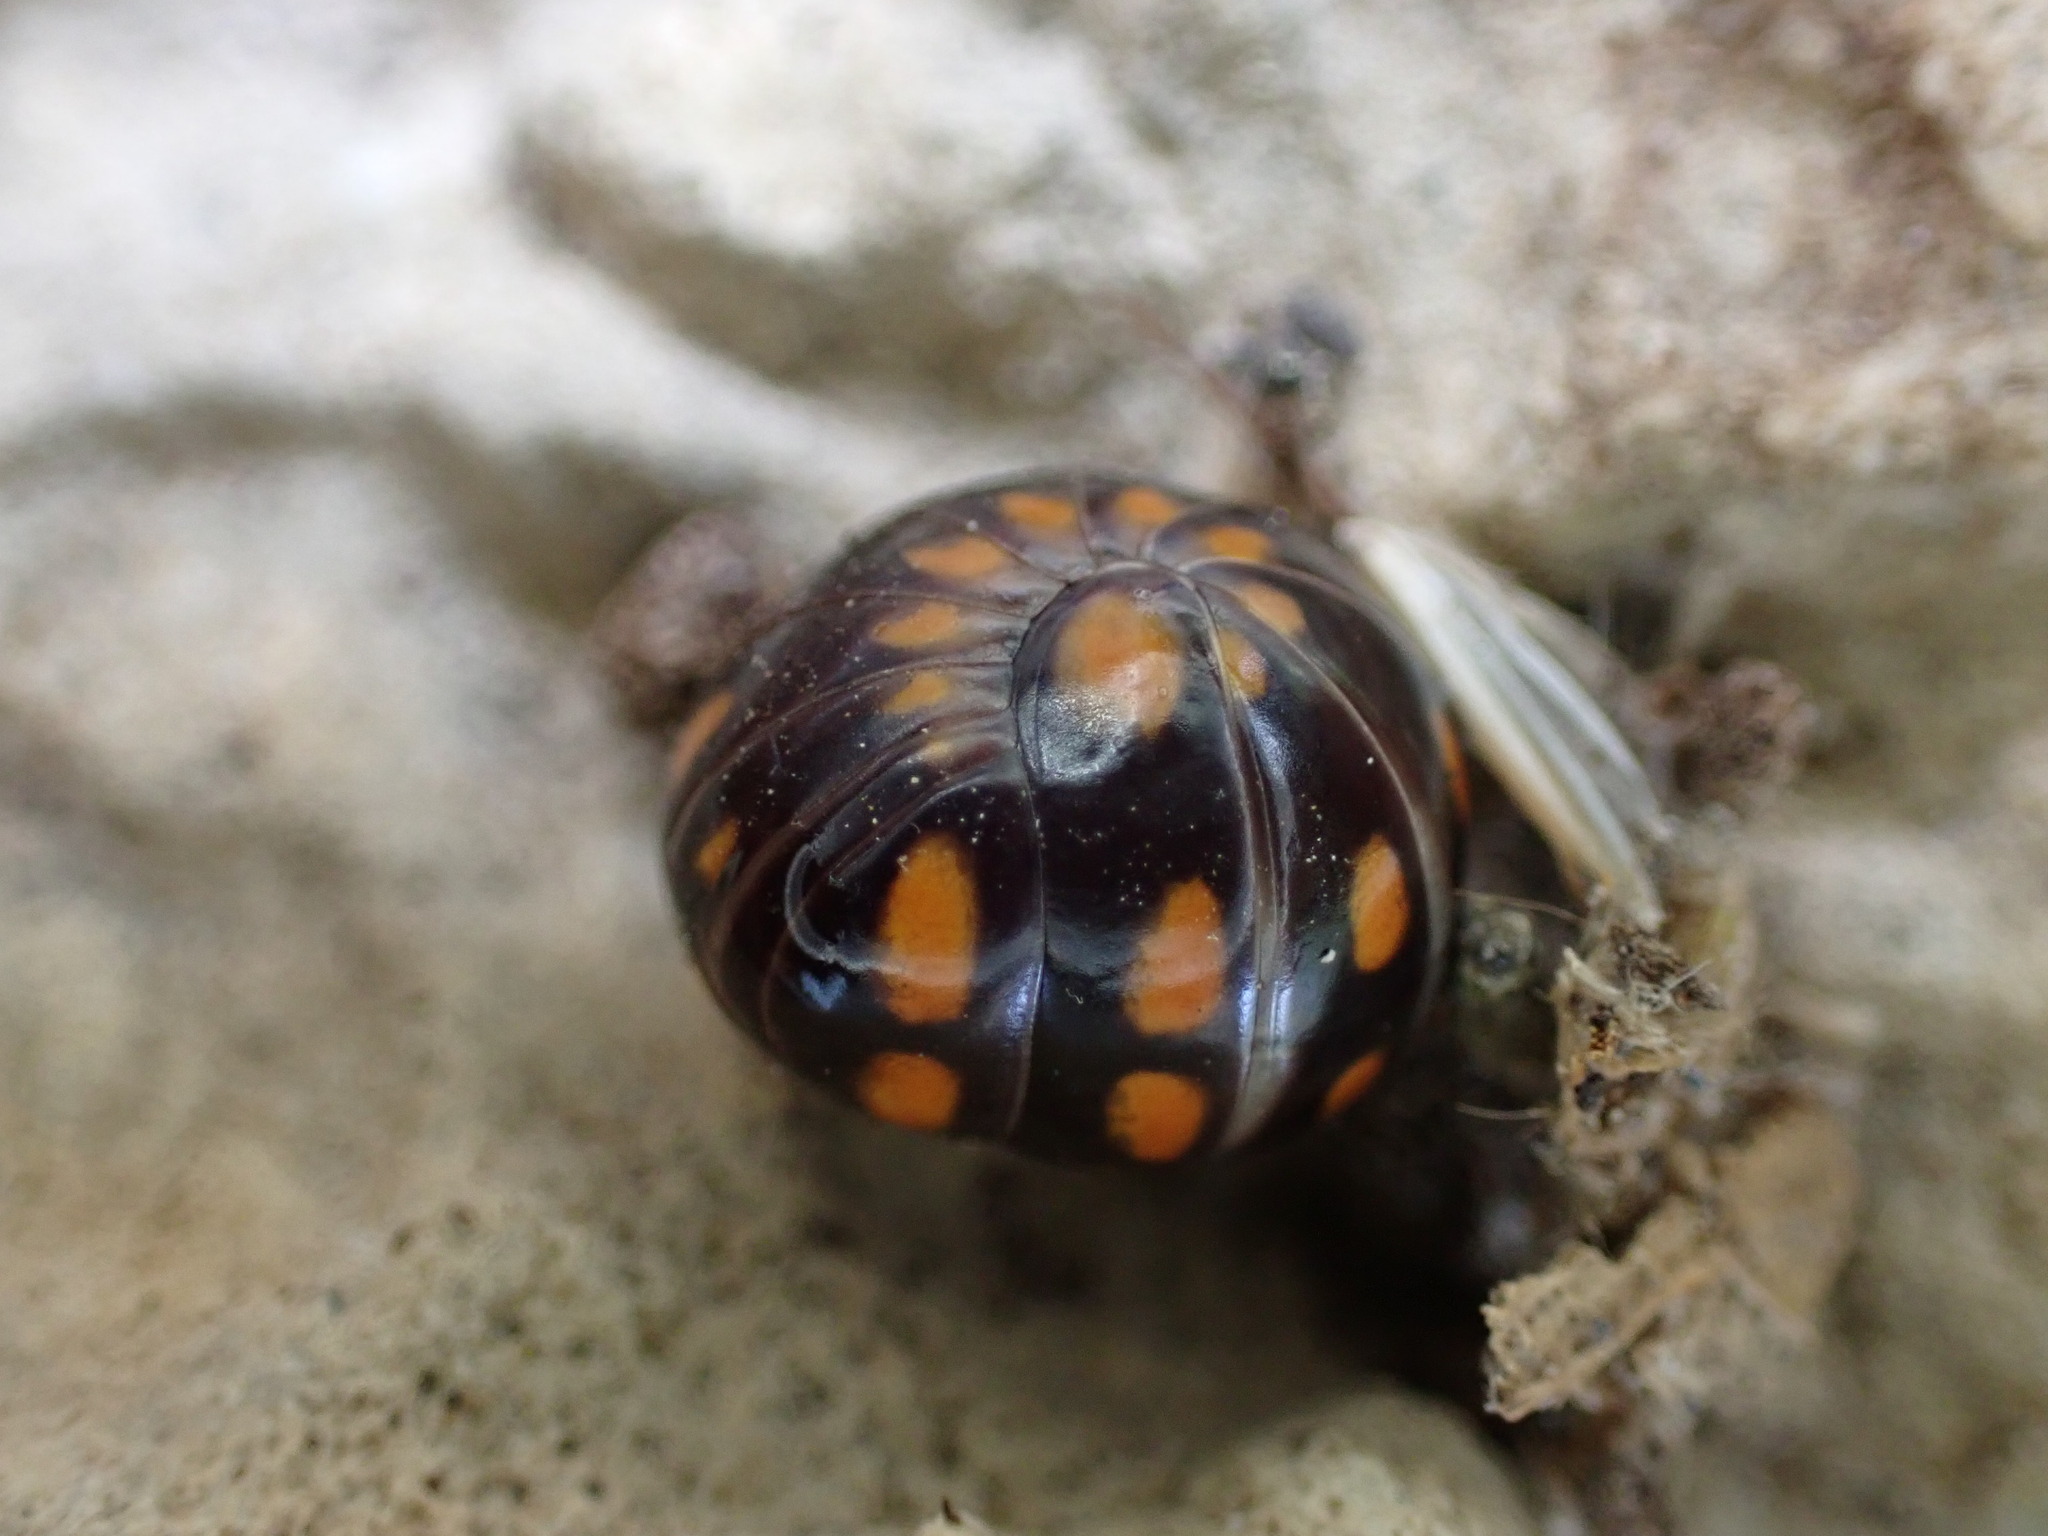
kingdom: Animalia
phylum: Arthropoda
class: Diplopoda
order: Glomerida
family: Glomeridae
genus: Glomeris
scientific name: Glomeris guttata
